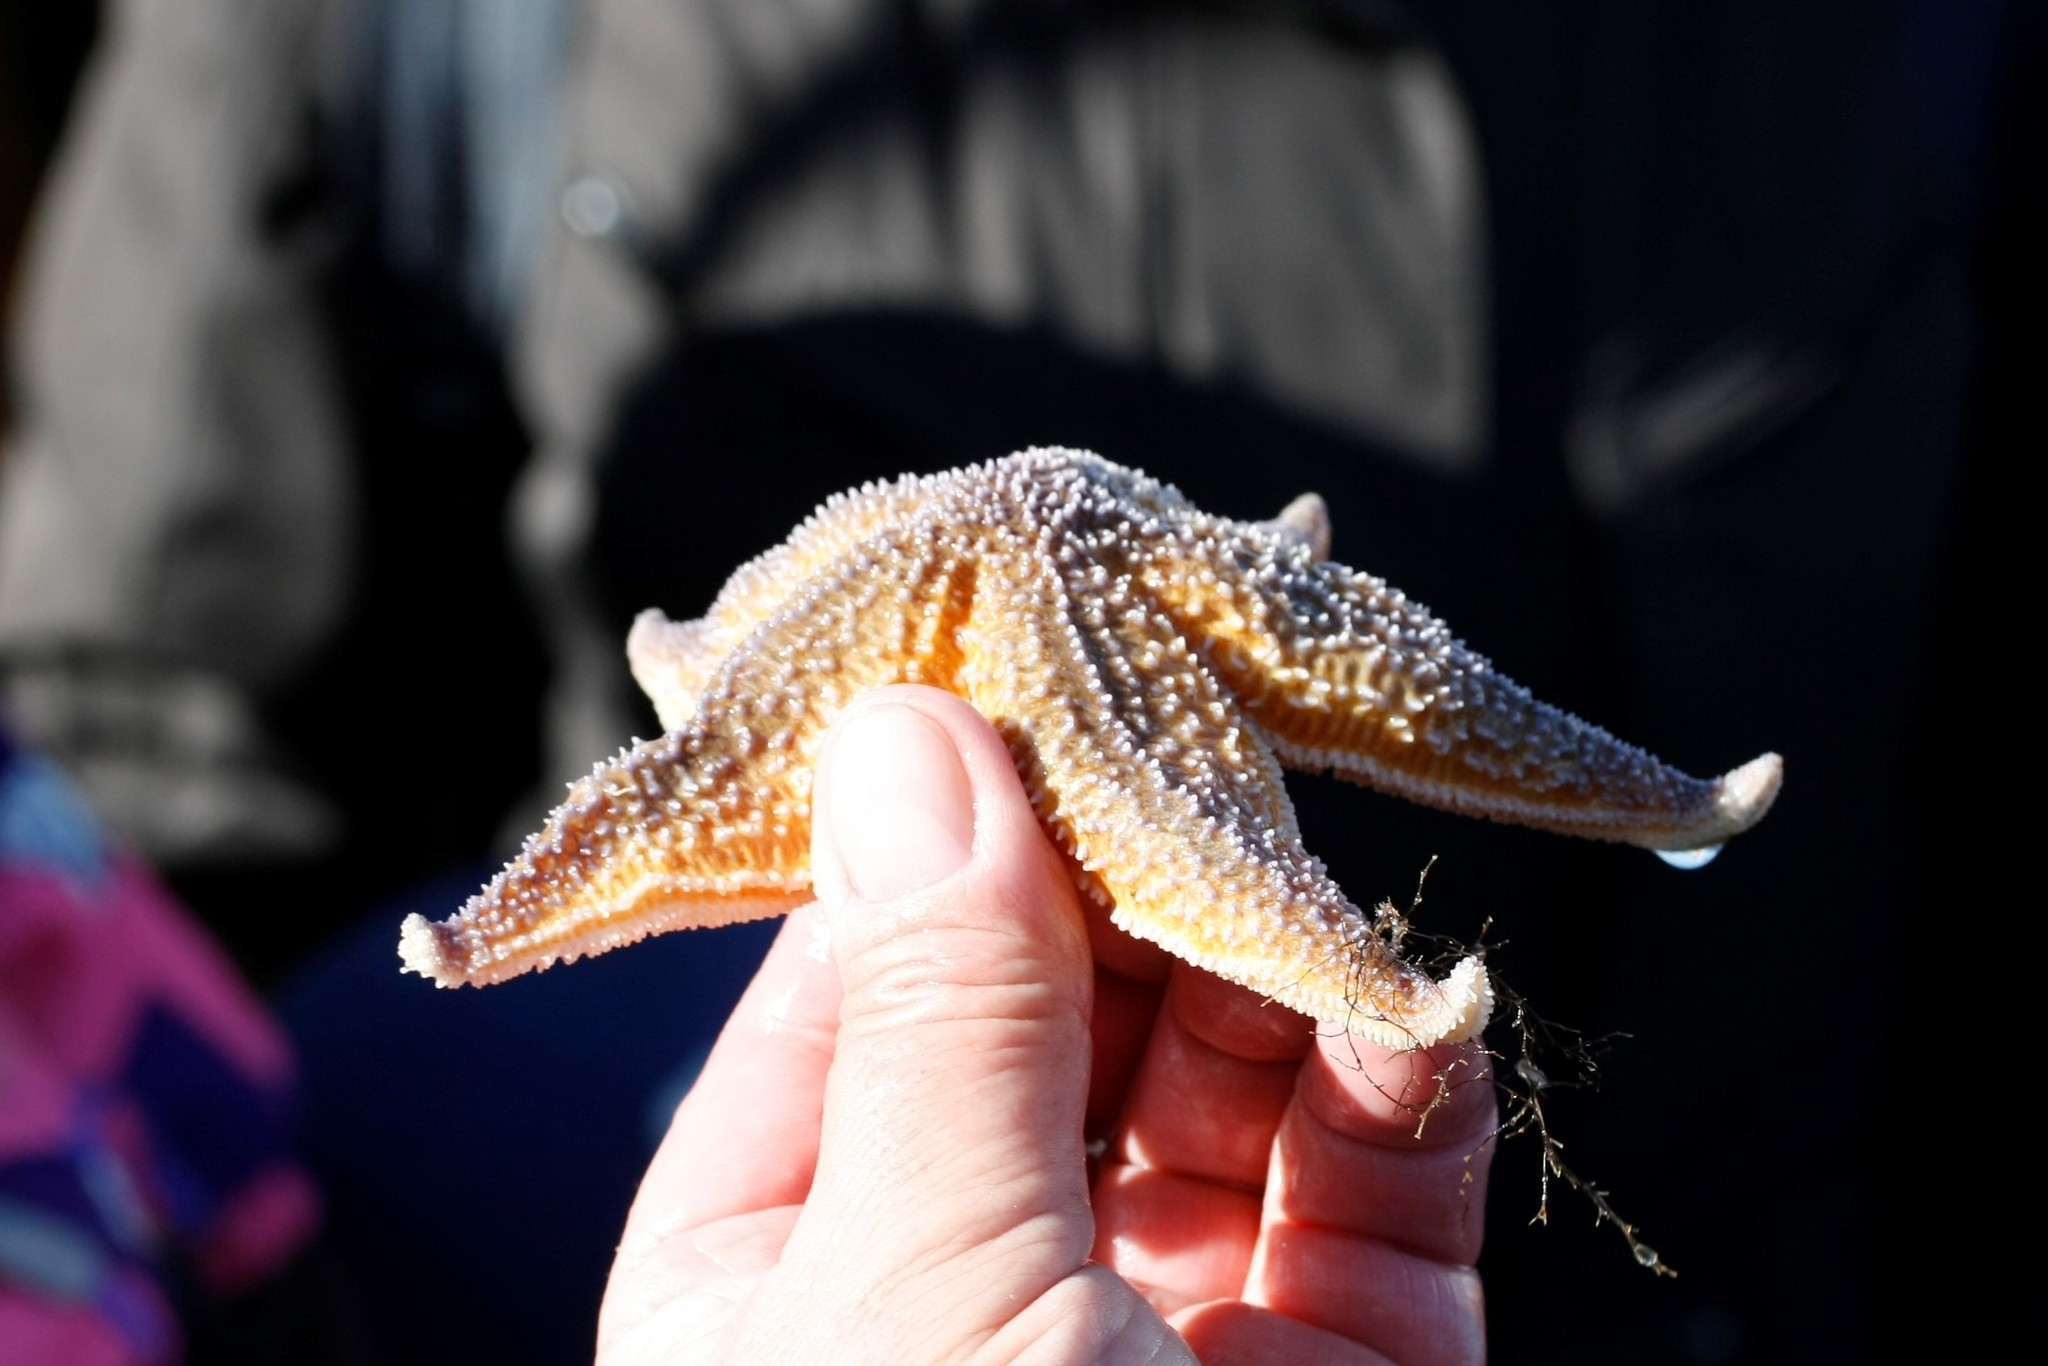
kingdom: Animalia
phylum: Echinodermata
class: Asteroidea
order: Forcipulatida
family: Asteriidae
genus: Asterias
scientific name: Asterias rubens
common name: Common starfish
